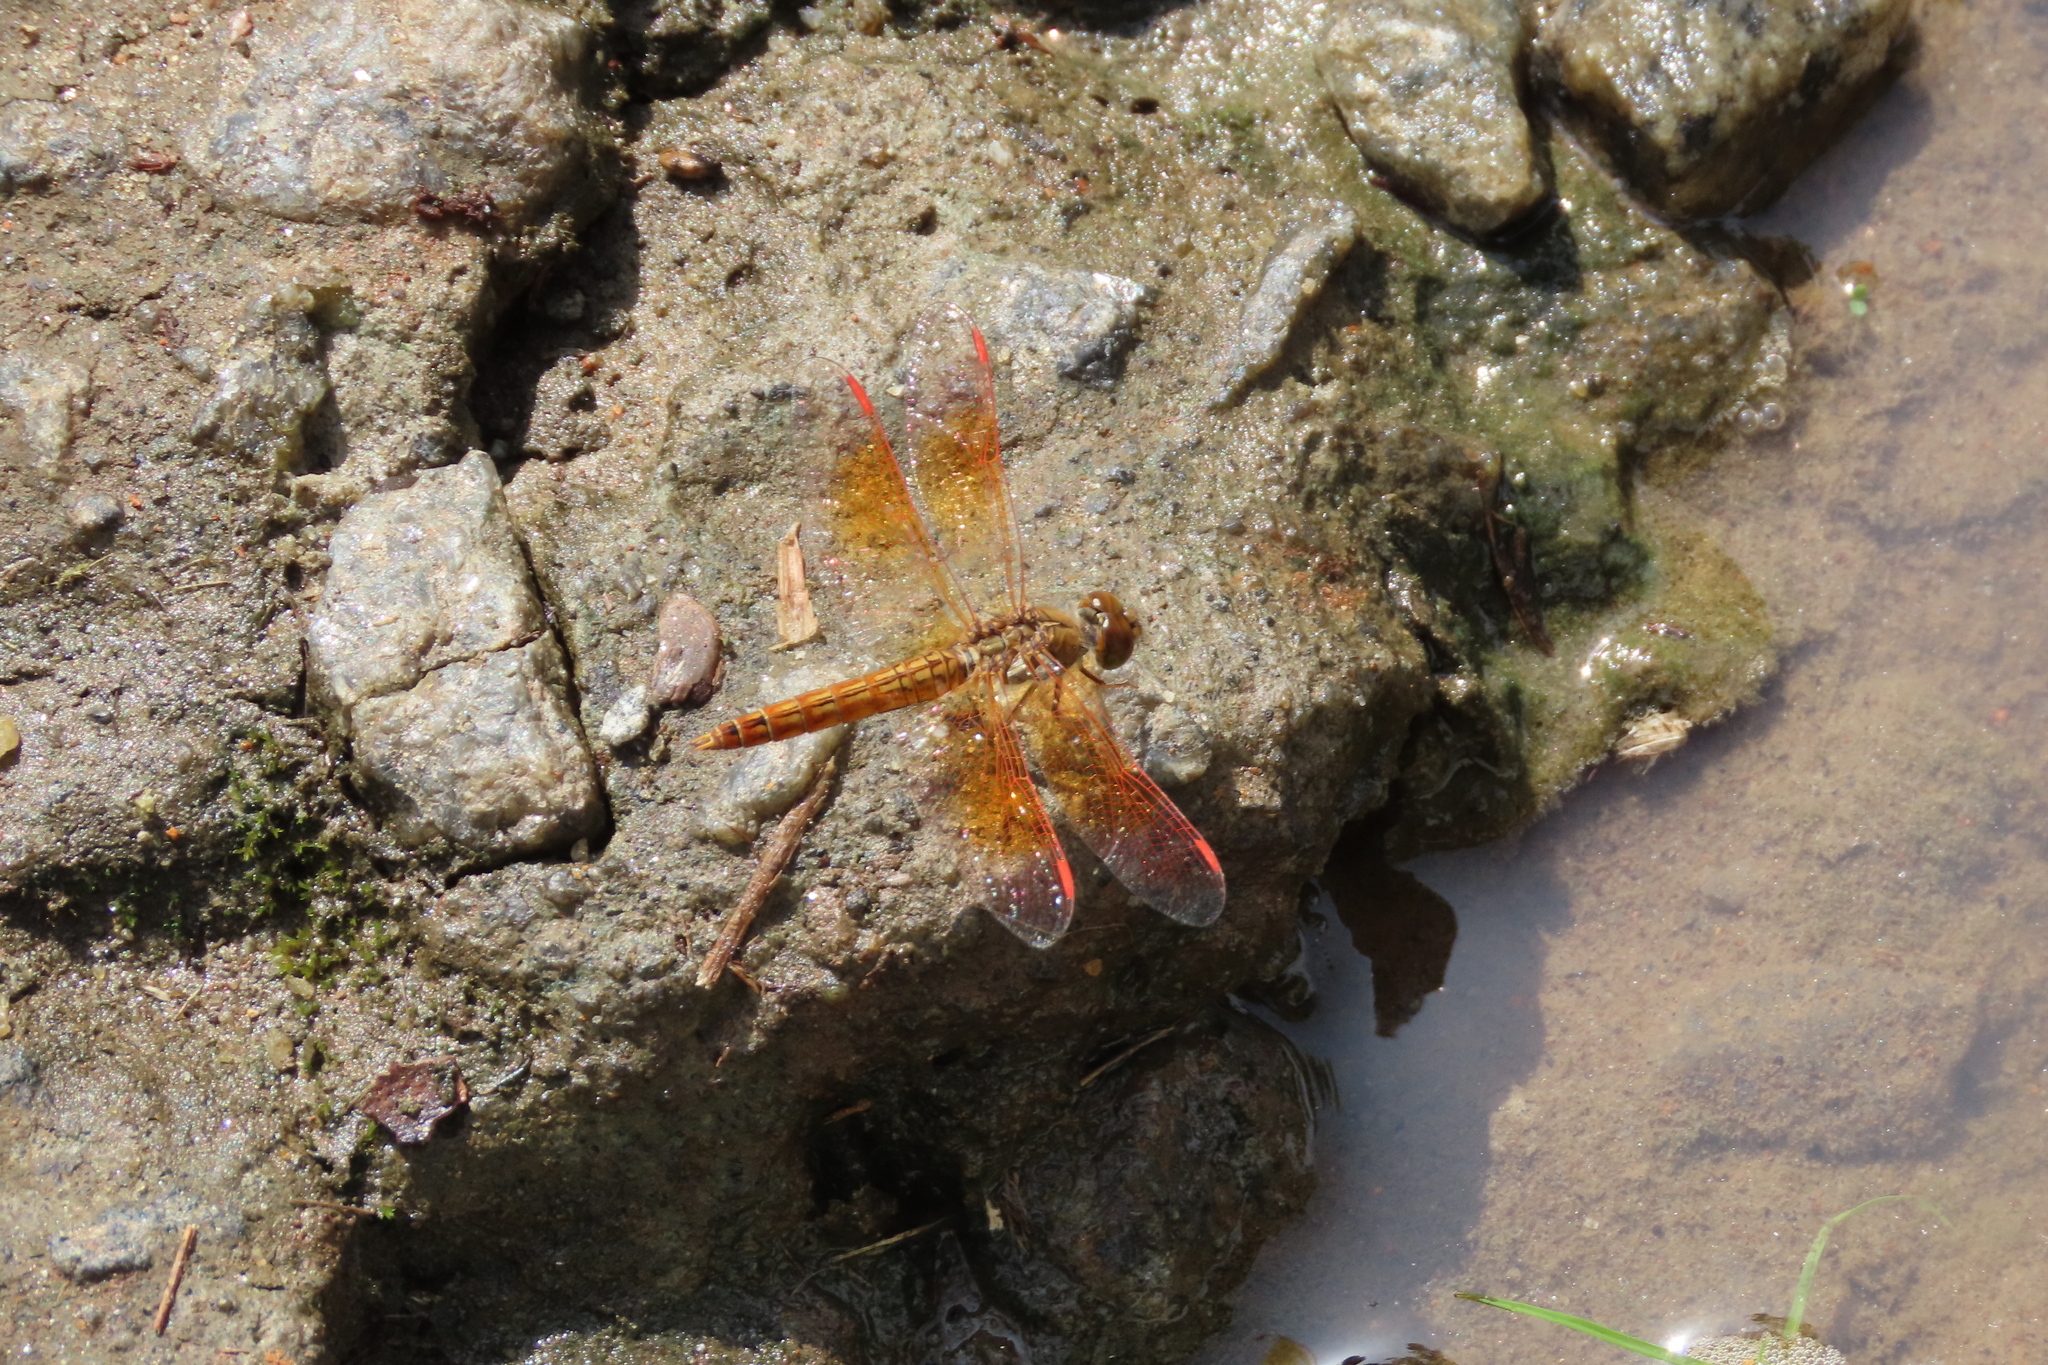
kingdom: Animalia
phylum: Arthropoda
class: Insecta
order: Odonata
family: Libellulidae
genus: Brachythemis
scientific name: Brachythemis contaminata
